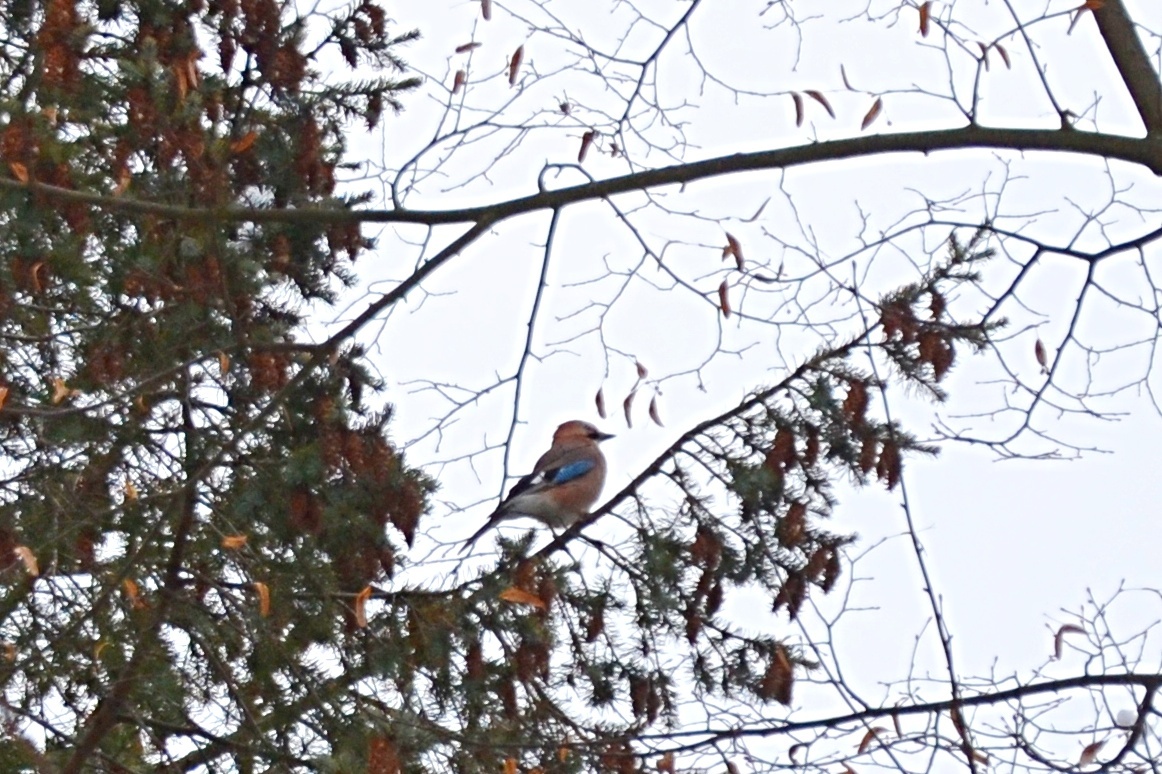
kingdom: Animalia
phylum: Chordata
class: Aves
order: Passeriformes
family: Corvidae
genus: Garrulus
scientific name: Garrulus glandarius
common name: Eurasian jay
